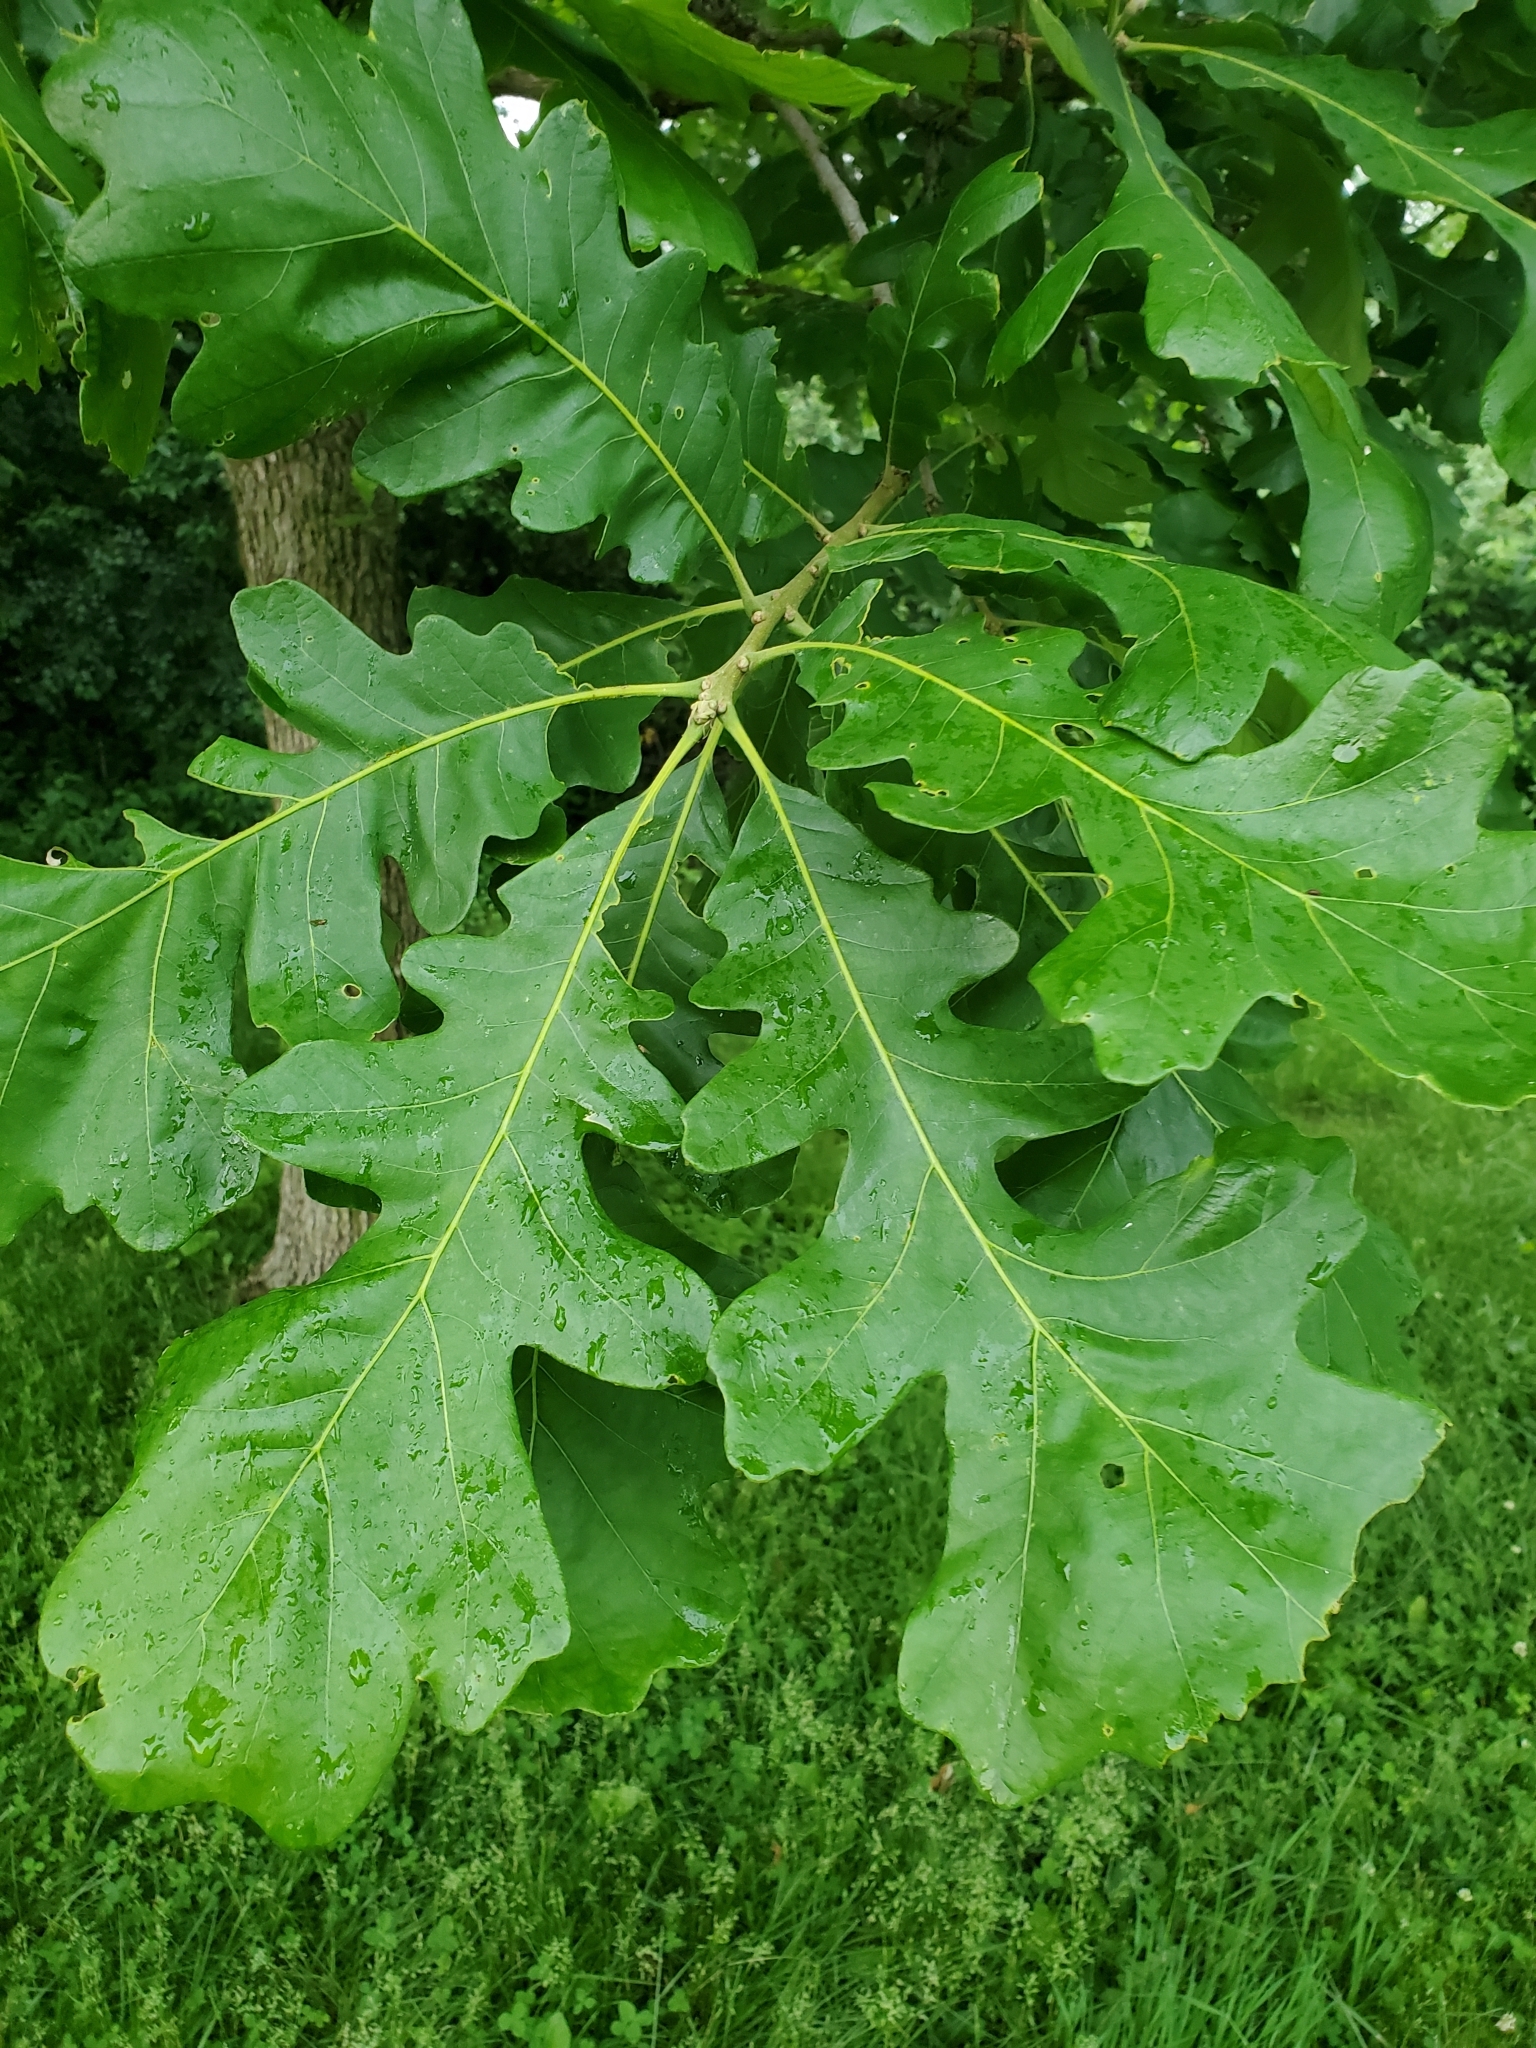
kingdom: Plantae
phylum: Tracheophyta
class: Magnoliopsida
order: Fagales
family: Fagaceae
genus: Quercus
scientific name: Quercus macrocarpa
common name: Bur oak
